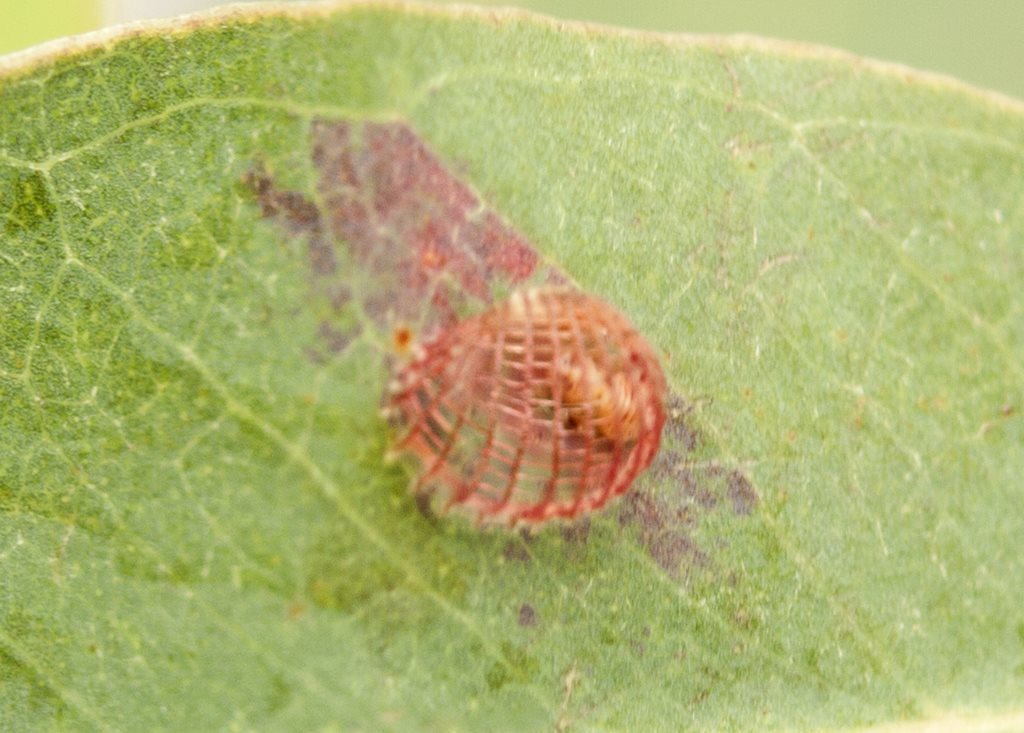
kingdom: Animalia
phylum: Arthropoda
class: Insecta
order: Hemiptera
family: Aphalaridae
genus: Cardiaspina
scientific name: Cardiaspina textrix
